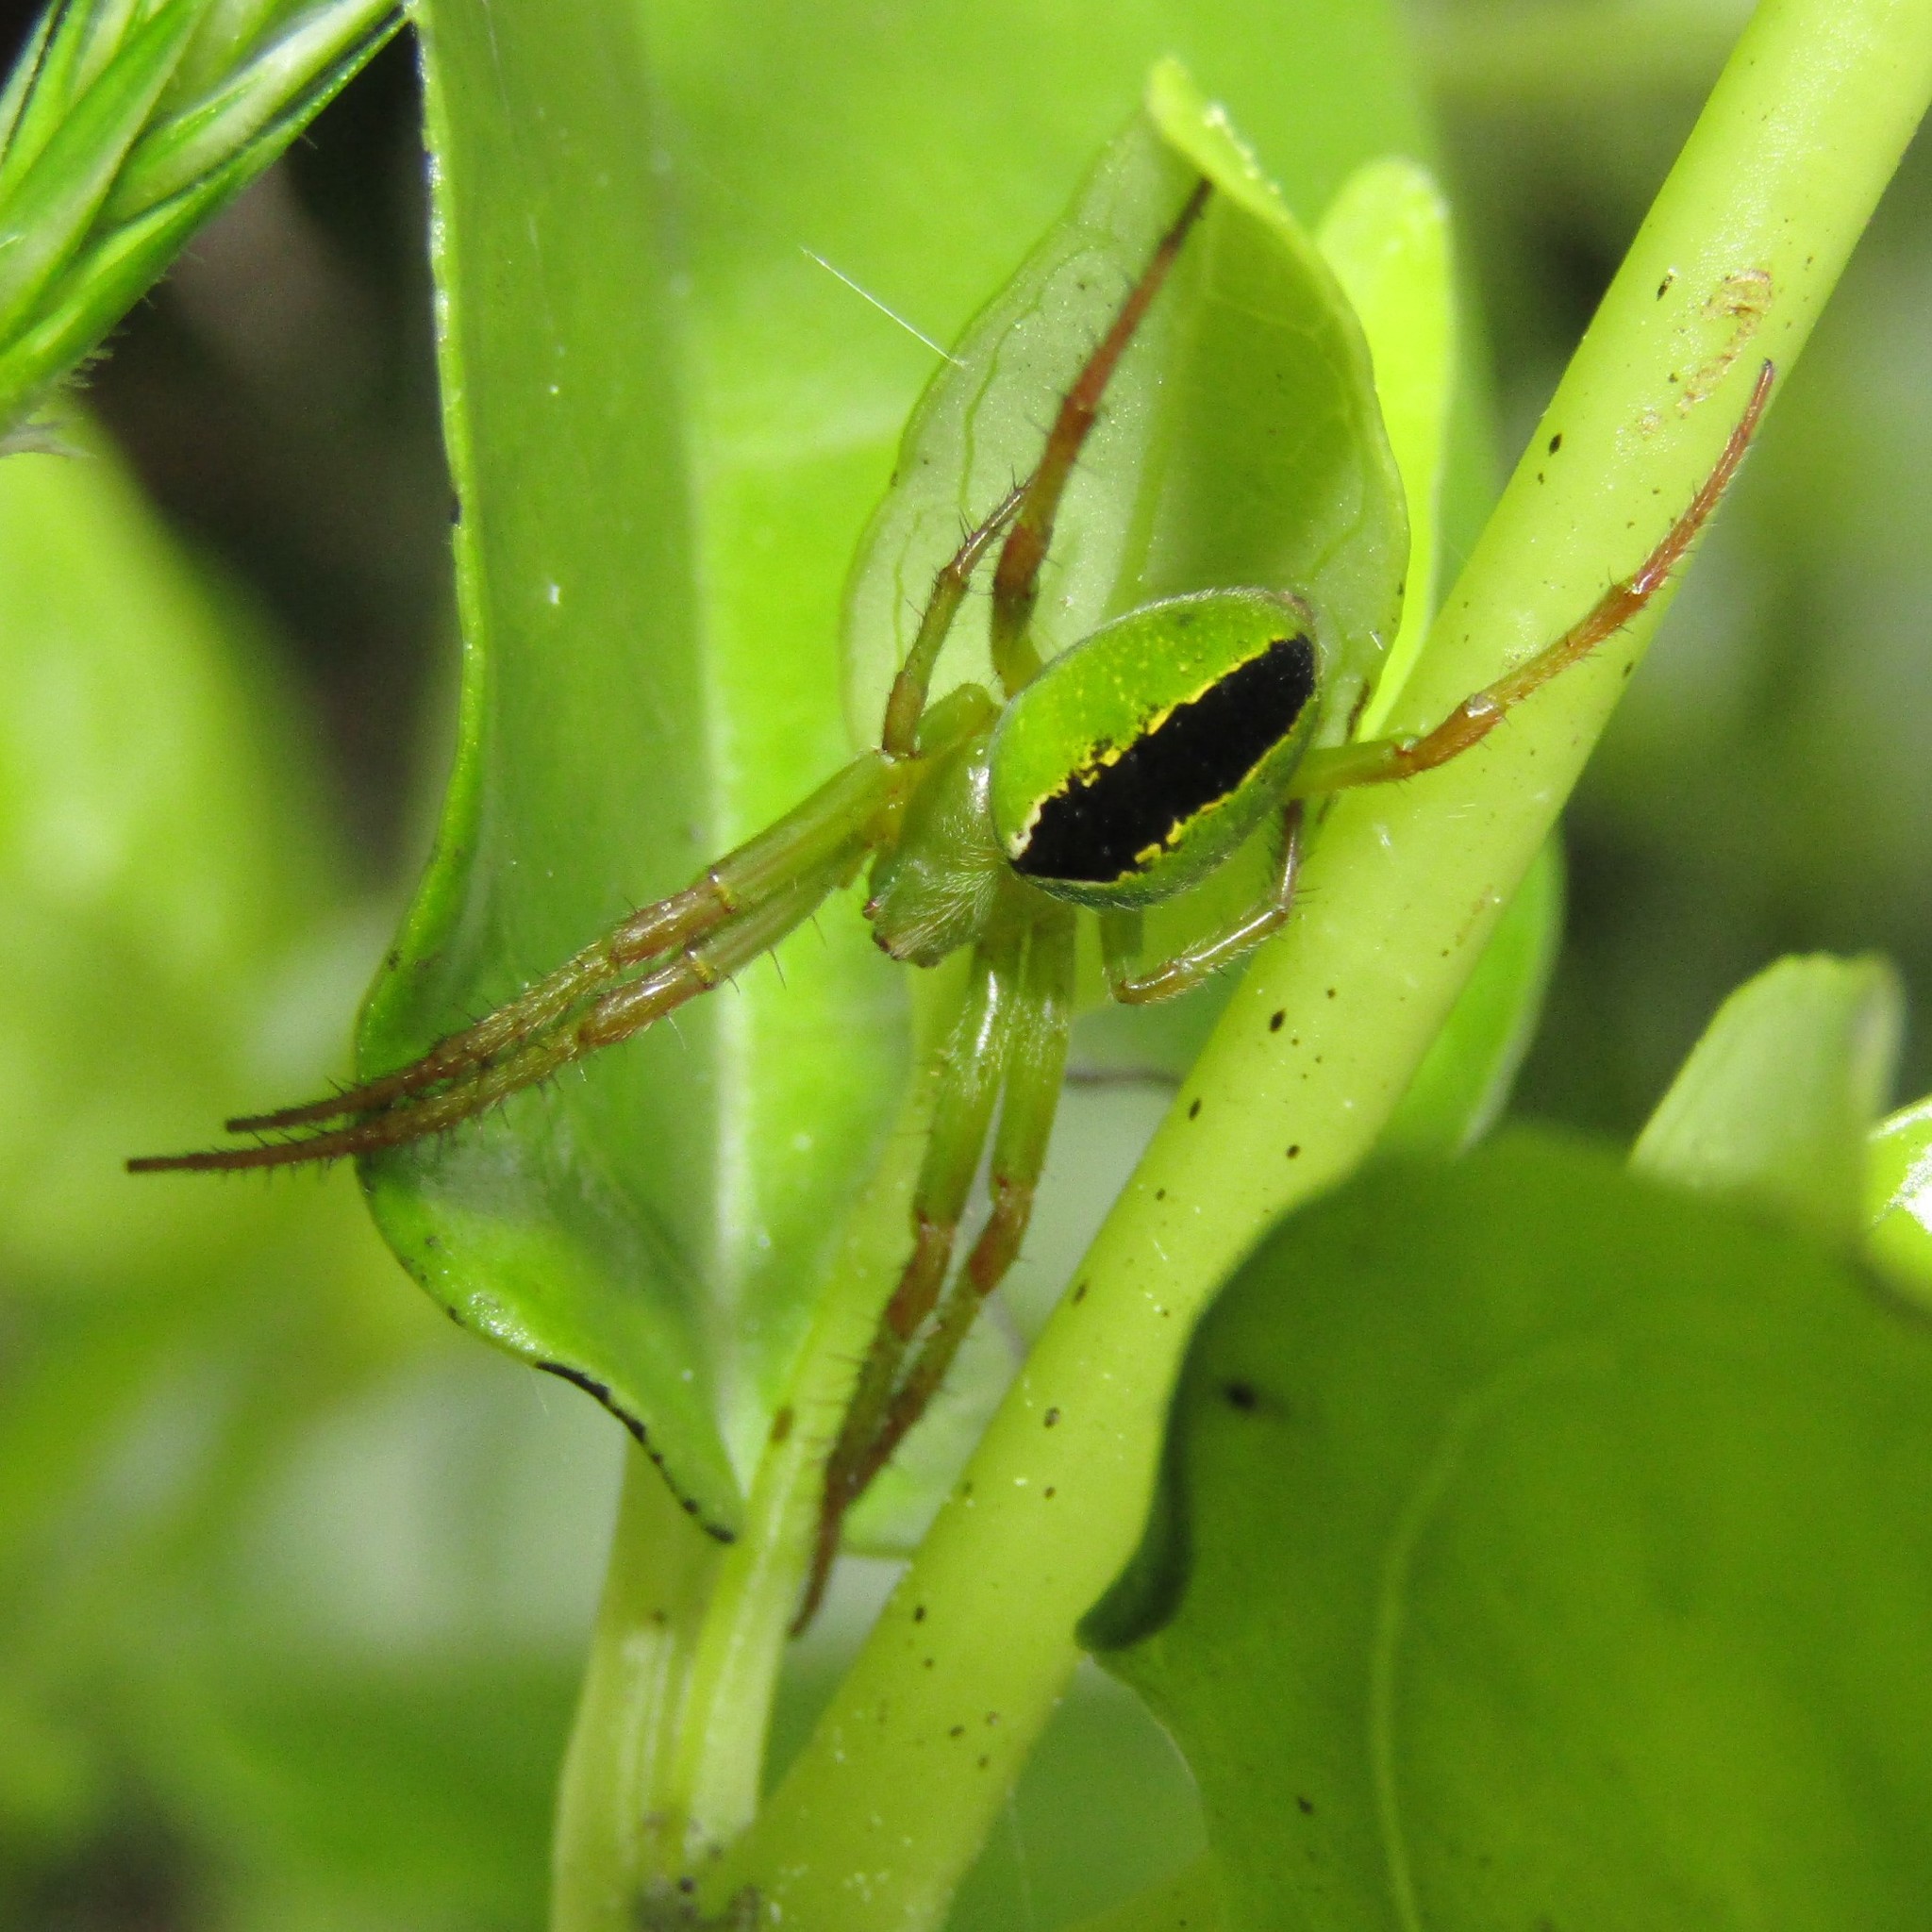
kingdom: Animalia
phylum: Arthropoda
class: Arachnida
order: Araneae
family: Araneidae
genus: Colaranea
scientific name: Colaranea melanoviridis
